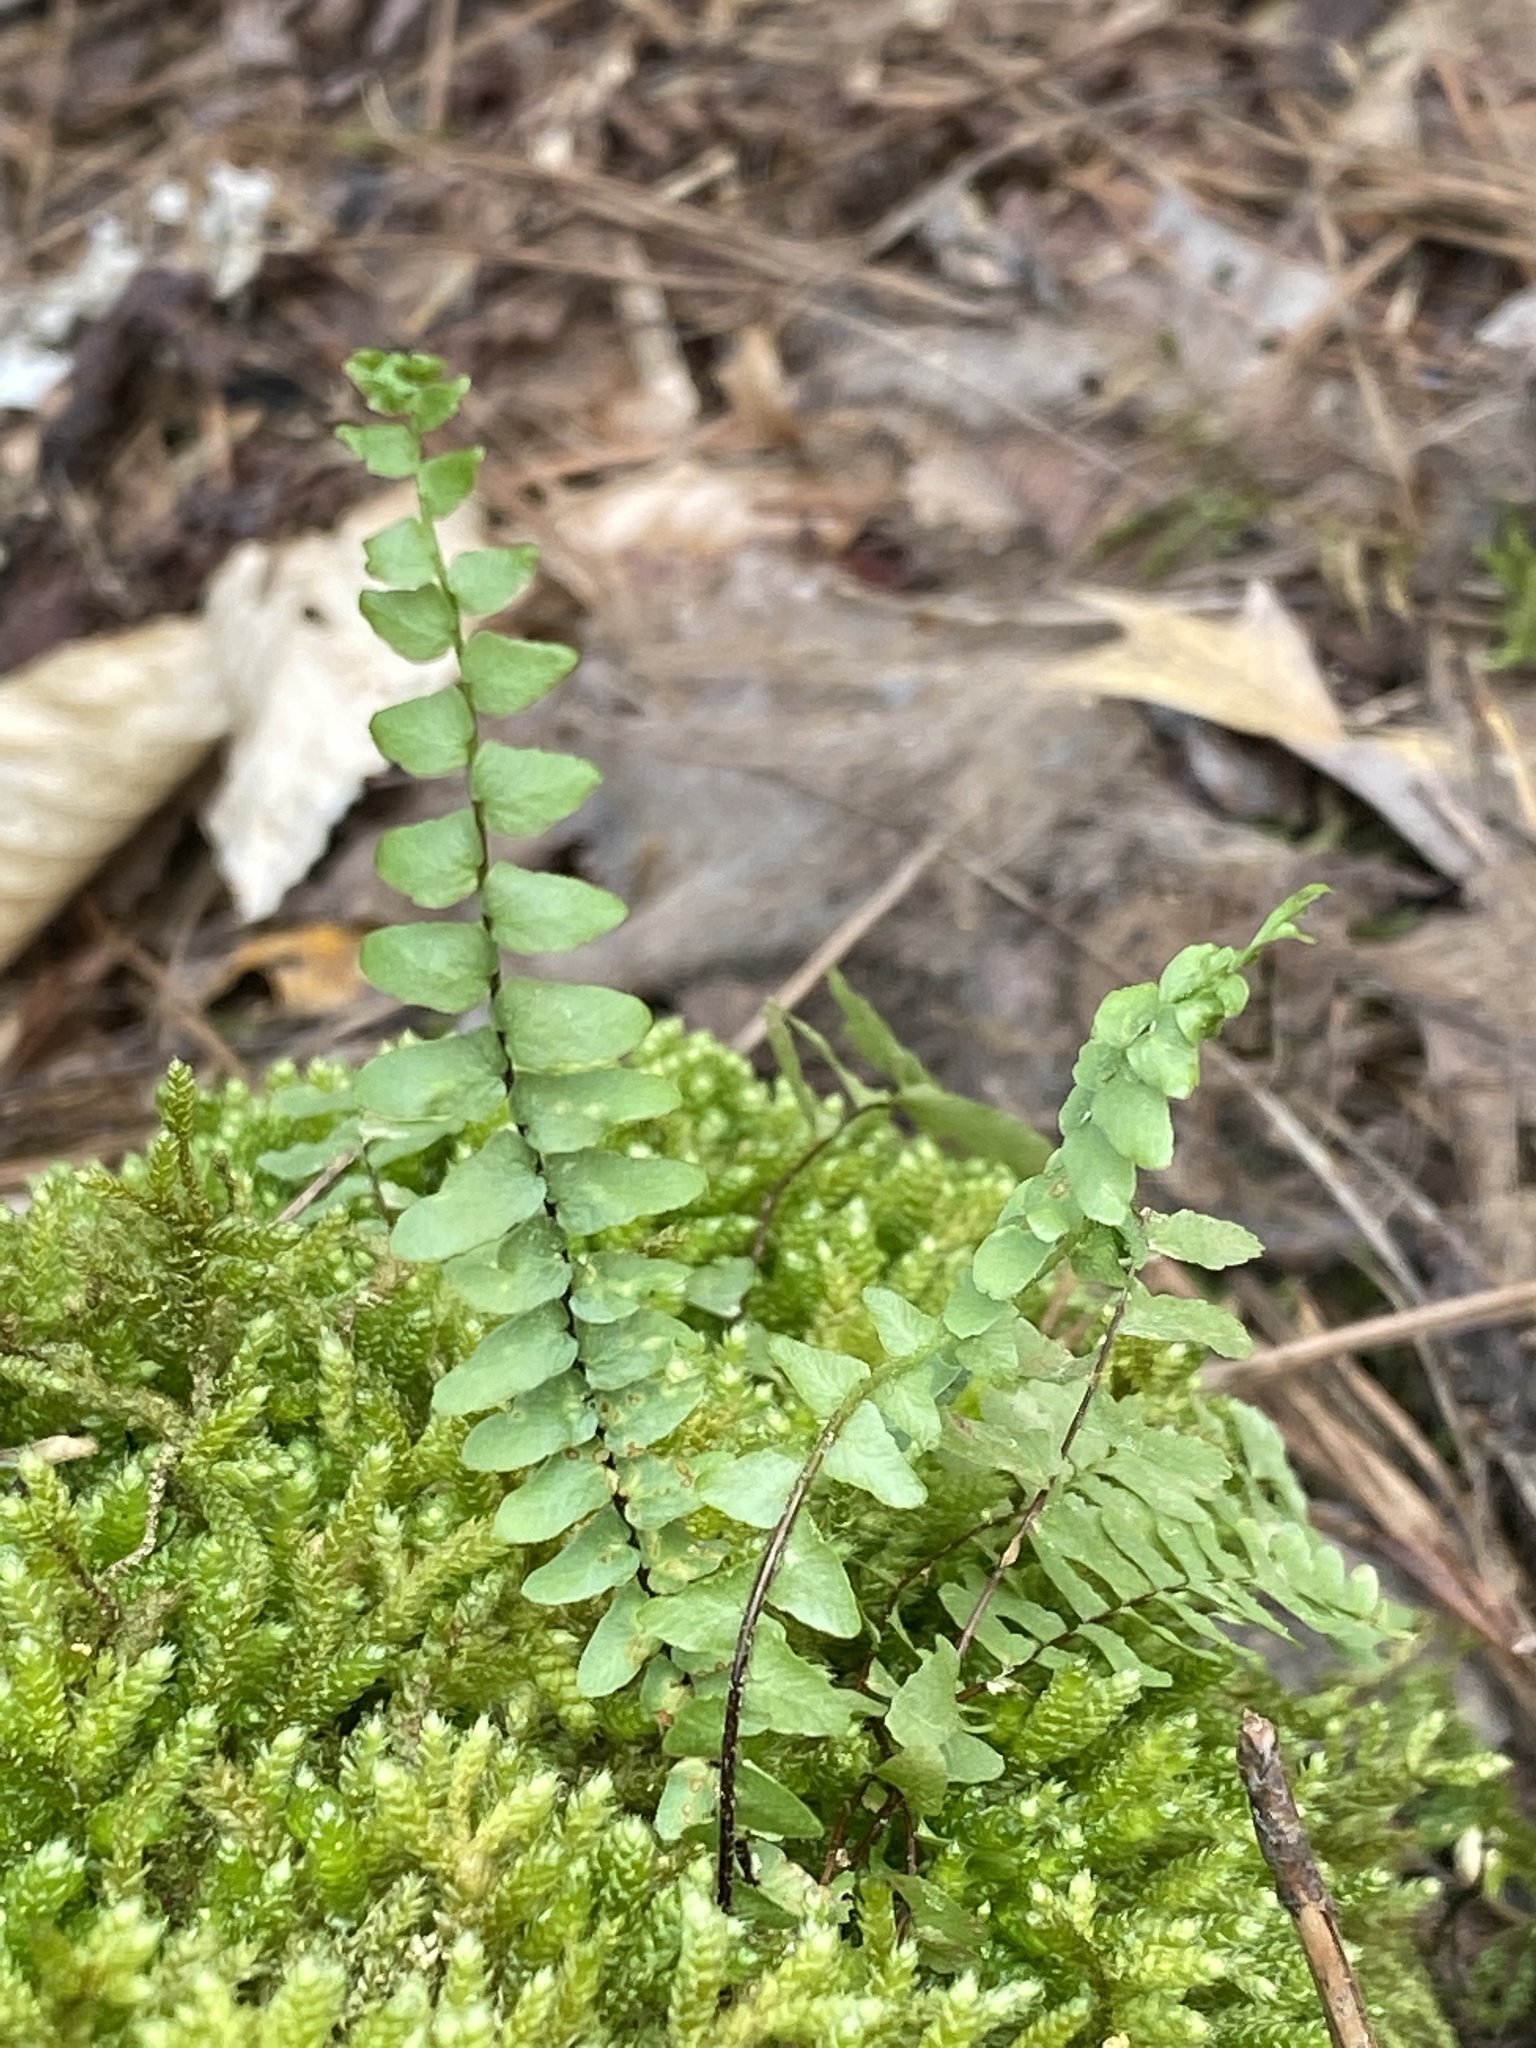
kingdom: Plantae
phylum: Tracheophyta
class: Polypodiopsida
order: Polypodiales
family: Aspleniaceae
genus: Asplenium
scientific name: Asplenium platyneuron
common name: Ebony spleenwort
